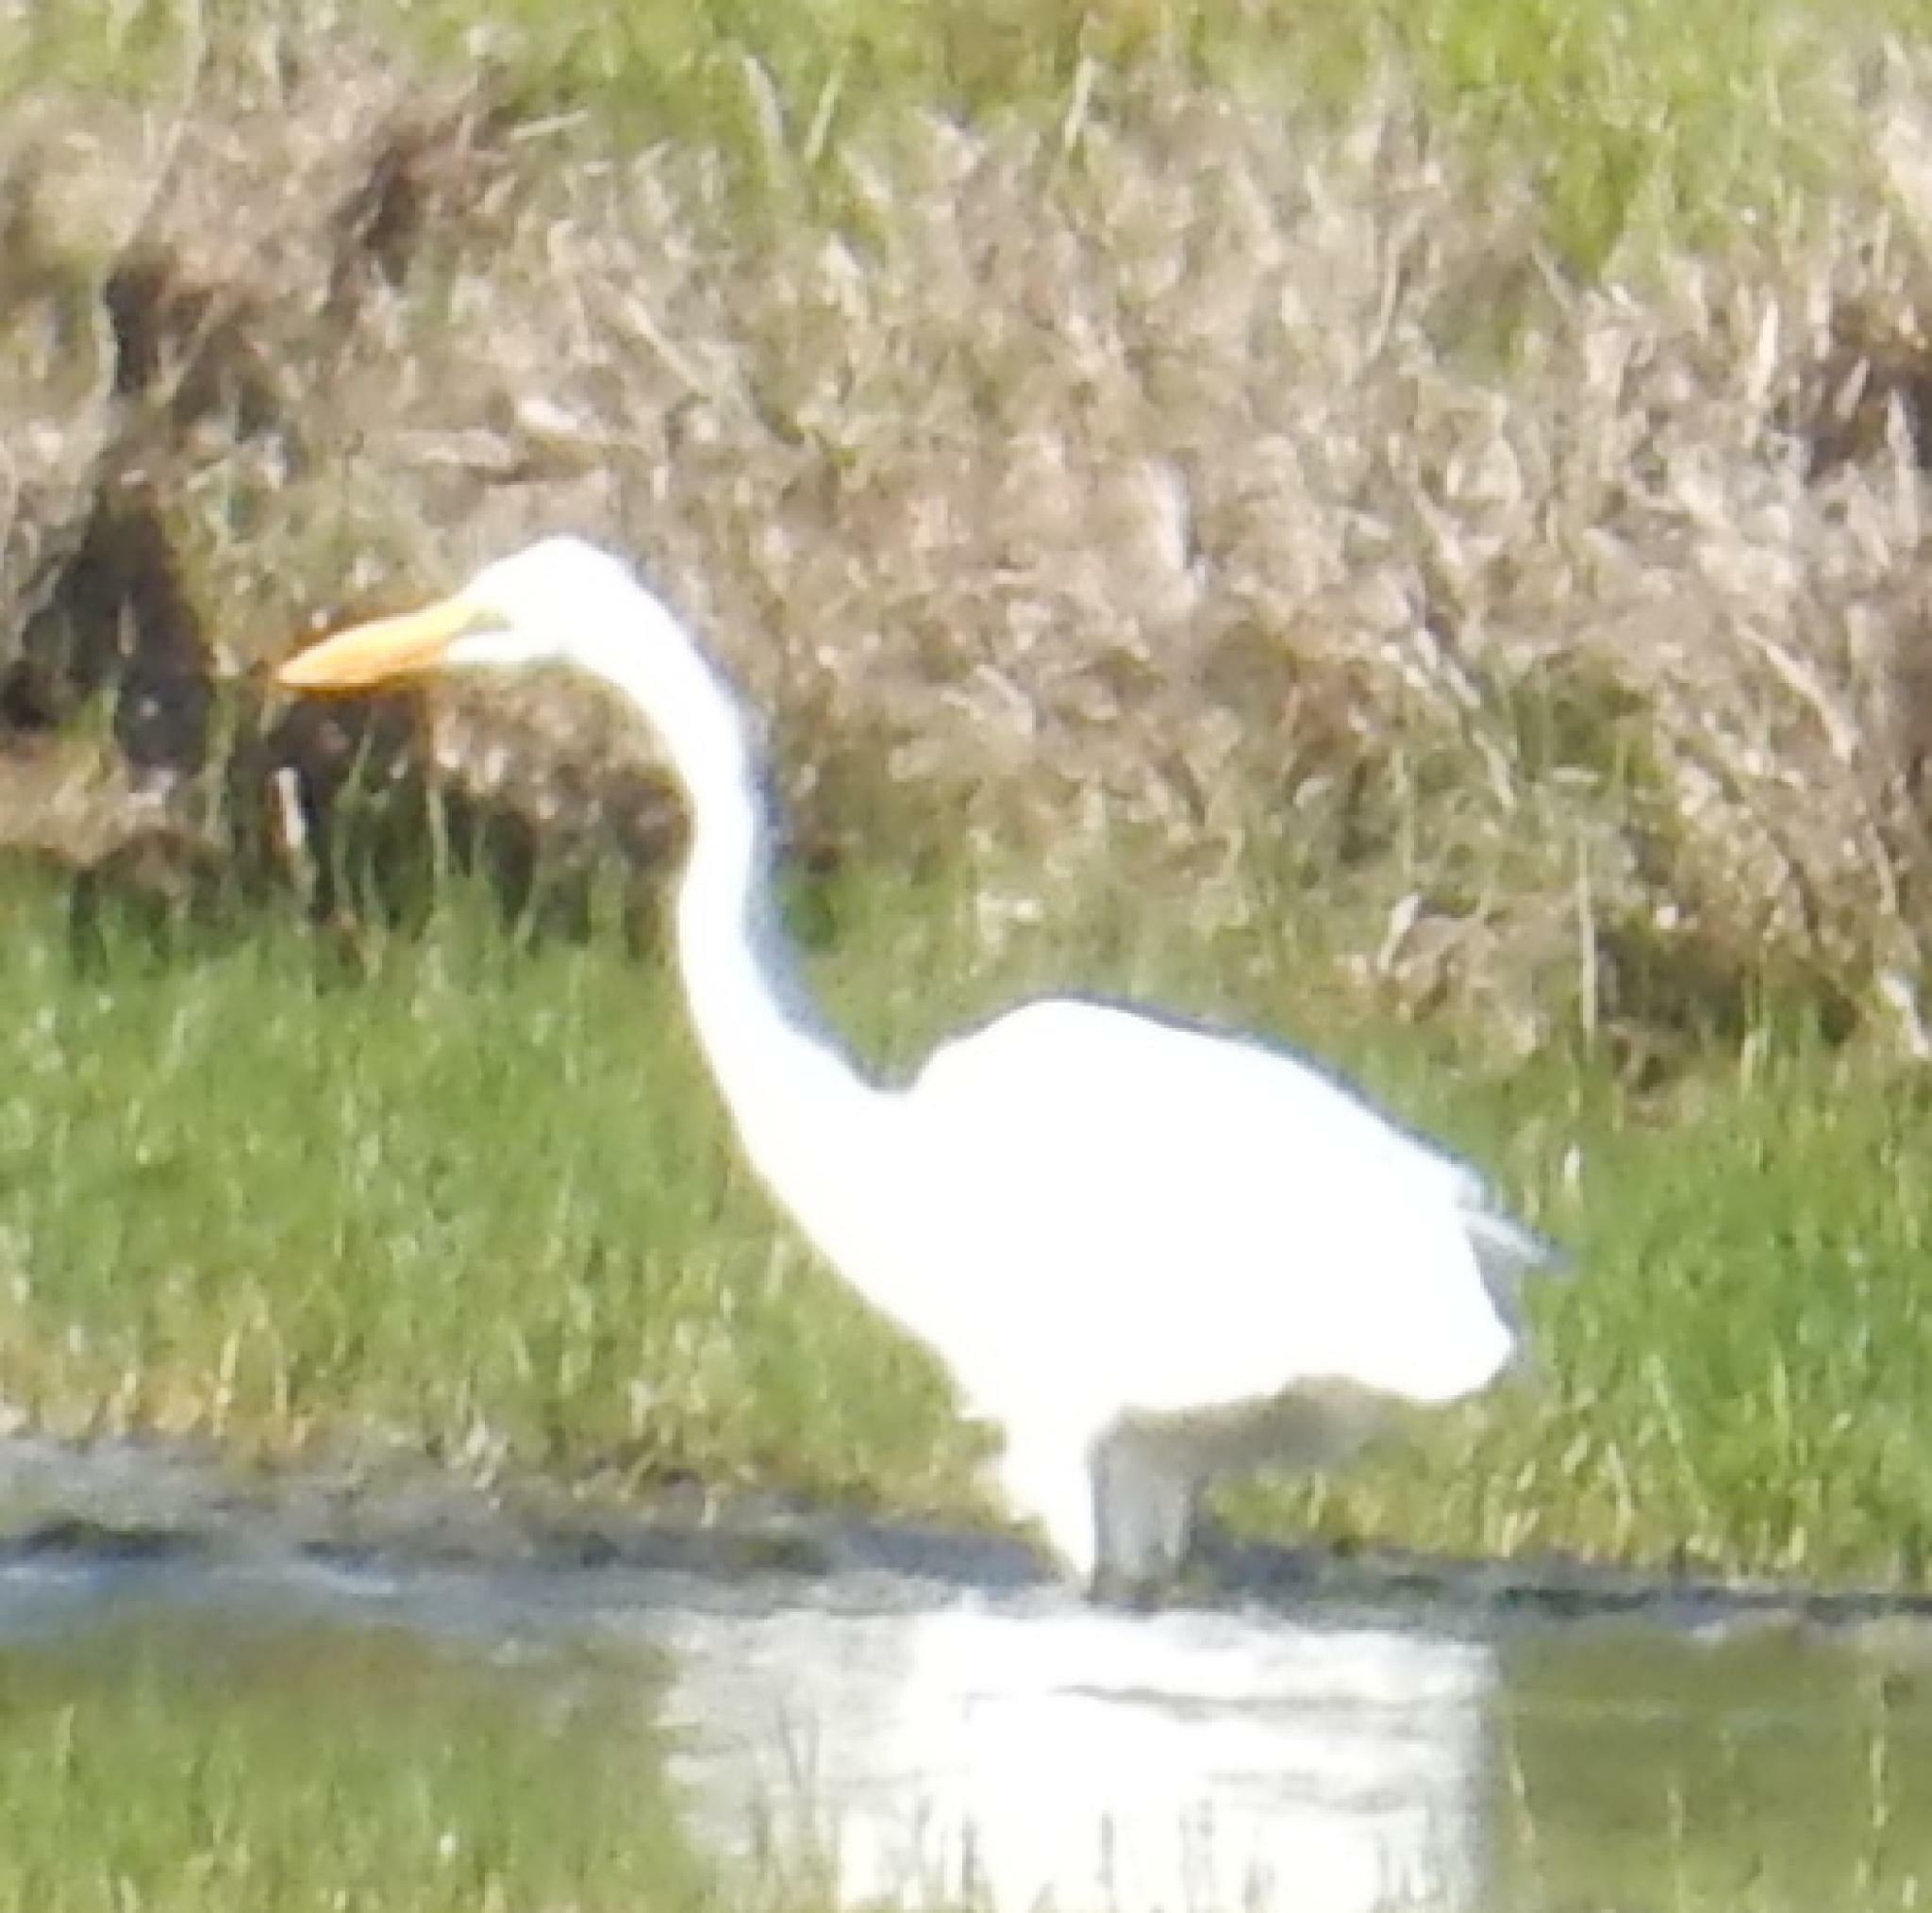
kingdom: Animalia
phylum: Chordata
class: Aves
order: Pelecaniformes
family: Ardeidae
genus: Ardea
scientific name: Ardea alba
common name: Great egret
